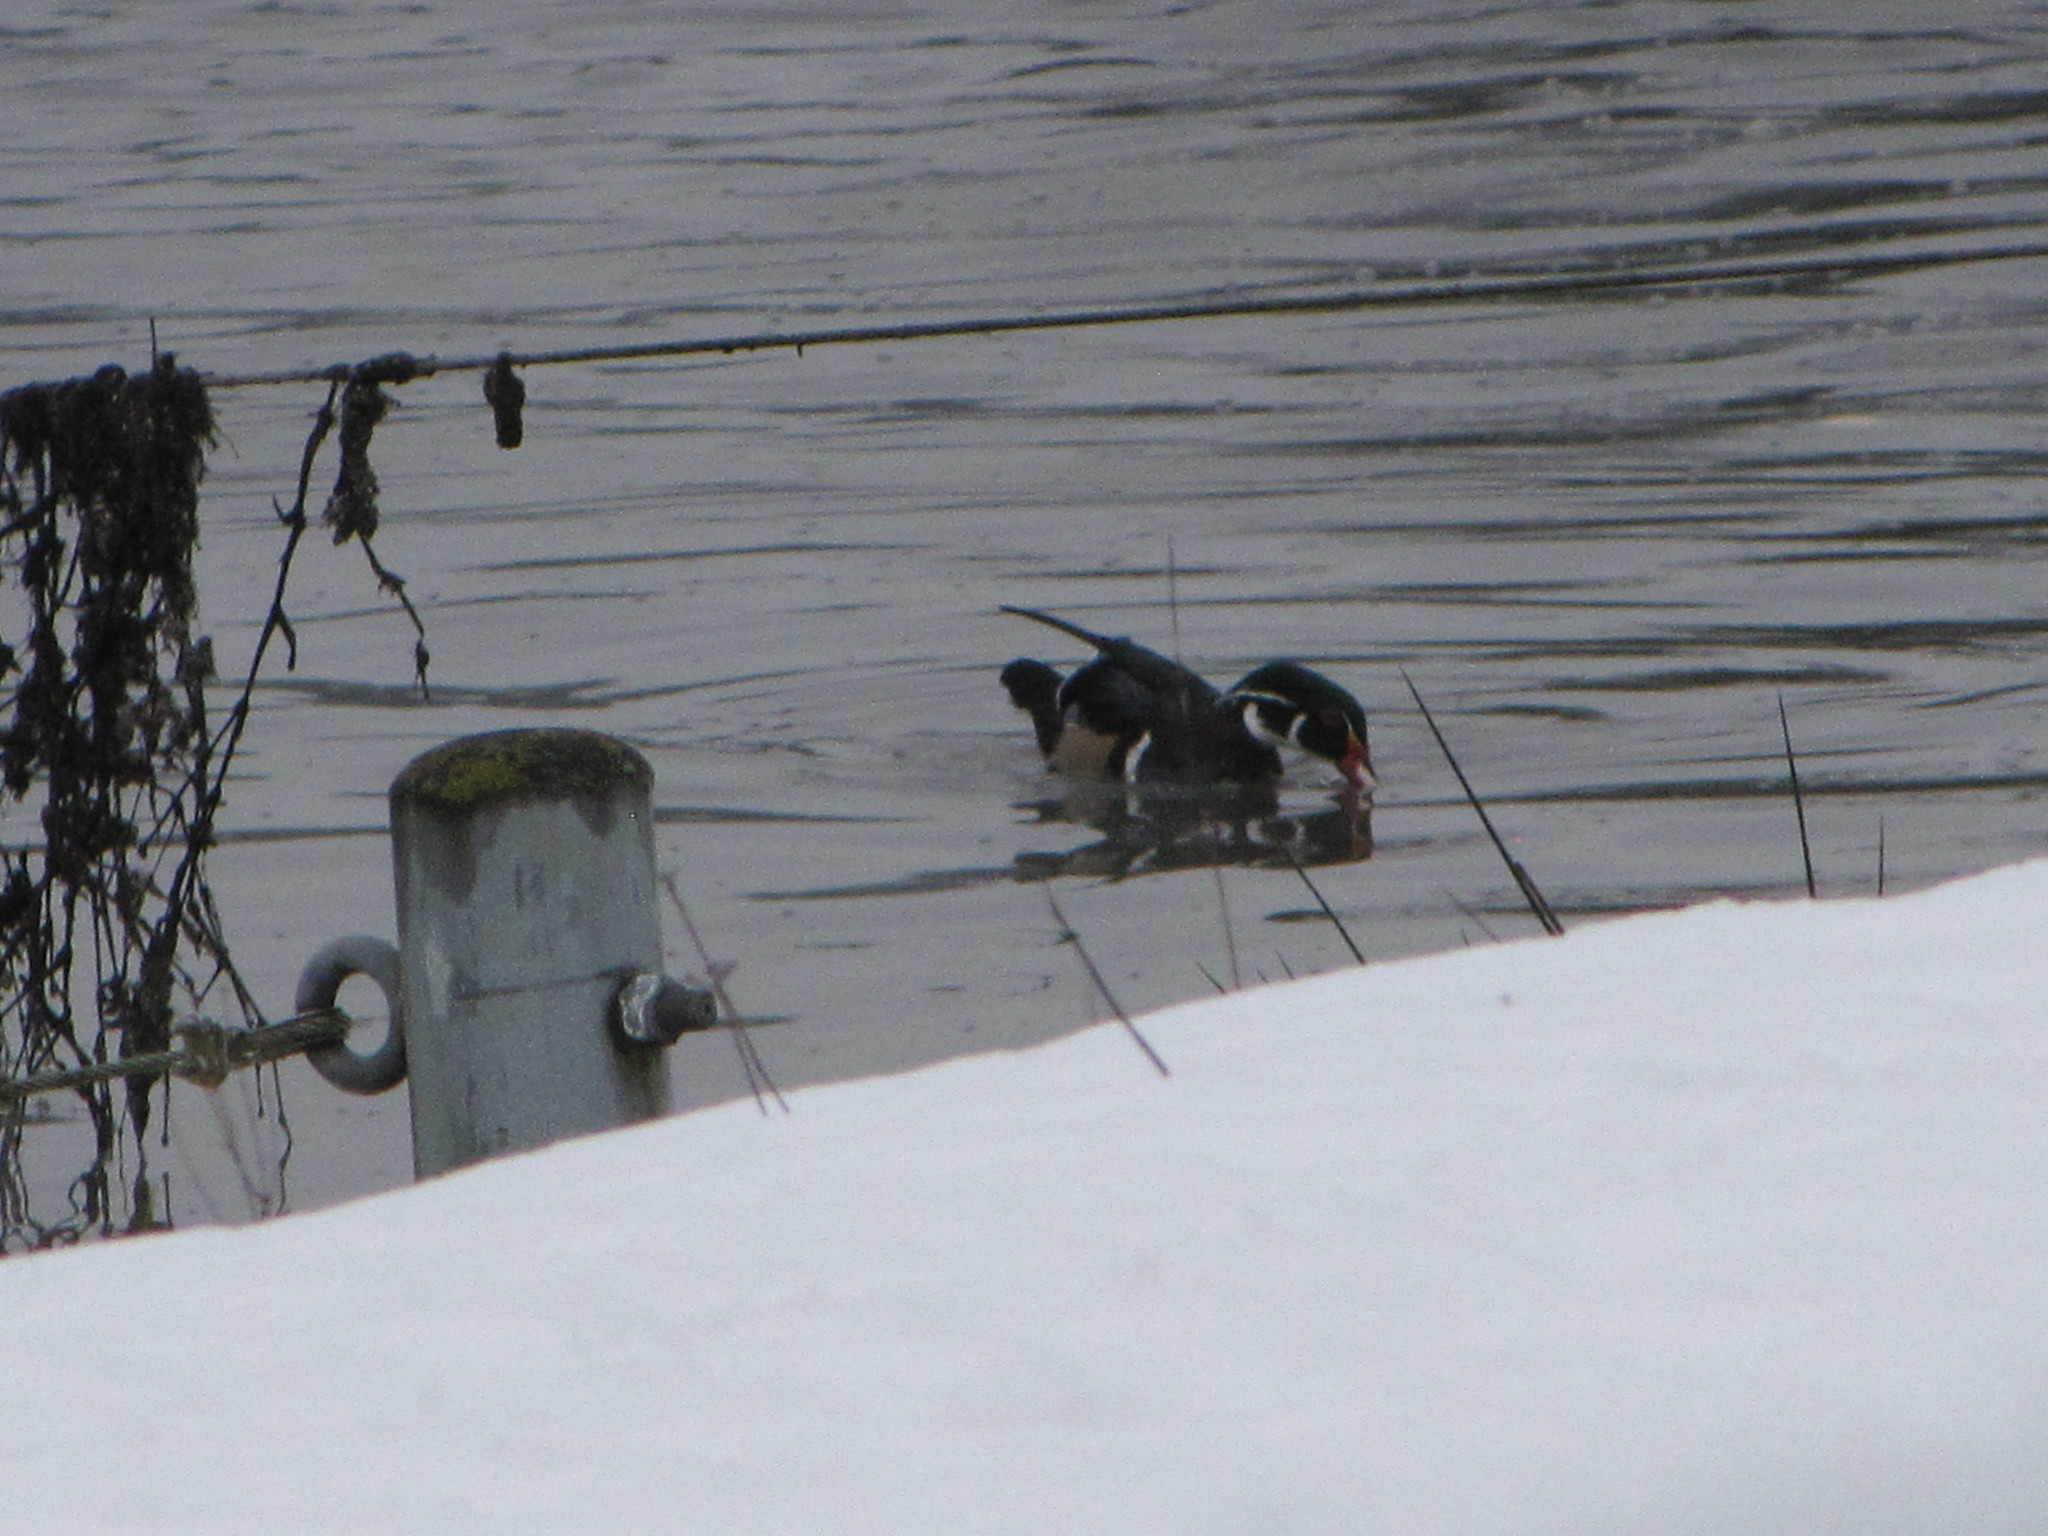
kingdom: Animalia
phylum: Chordata
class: Aves
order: Anseriformes
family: Anatidae
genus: Aix
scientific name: Aix sponsa
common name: Wood duck
